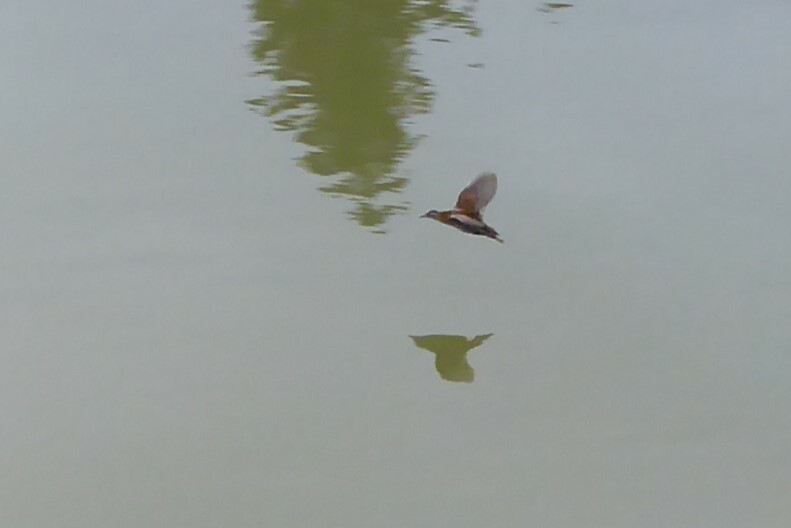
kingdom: Animalia
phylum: Chordata
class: Aves
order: Gruiformes
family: Rallidae
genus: Porzana
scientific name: Porzana pusilla
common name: Baillon's crake
